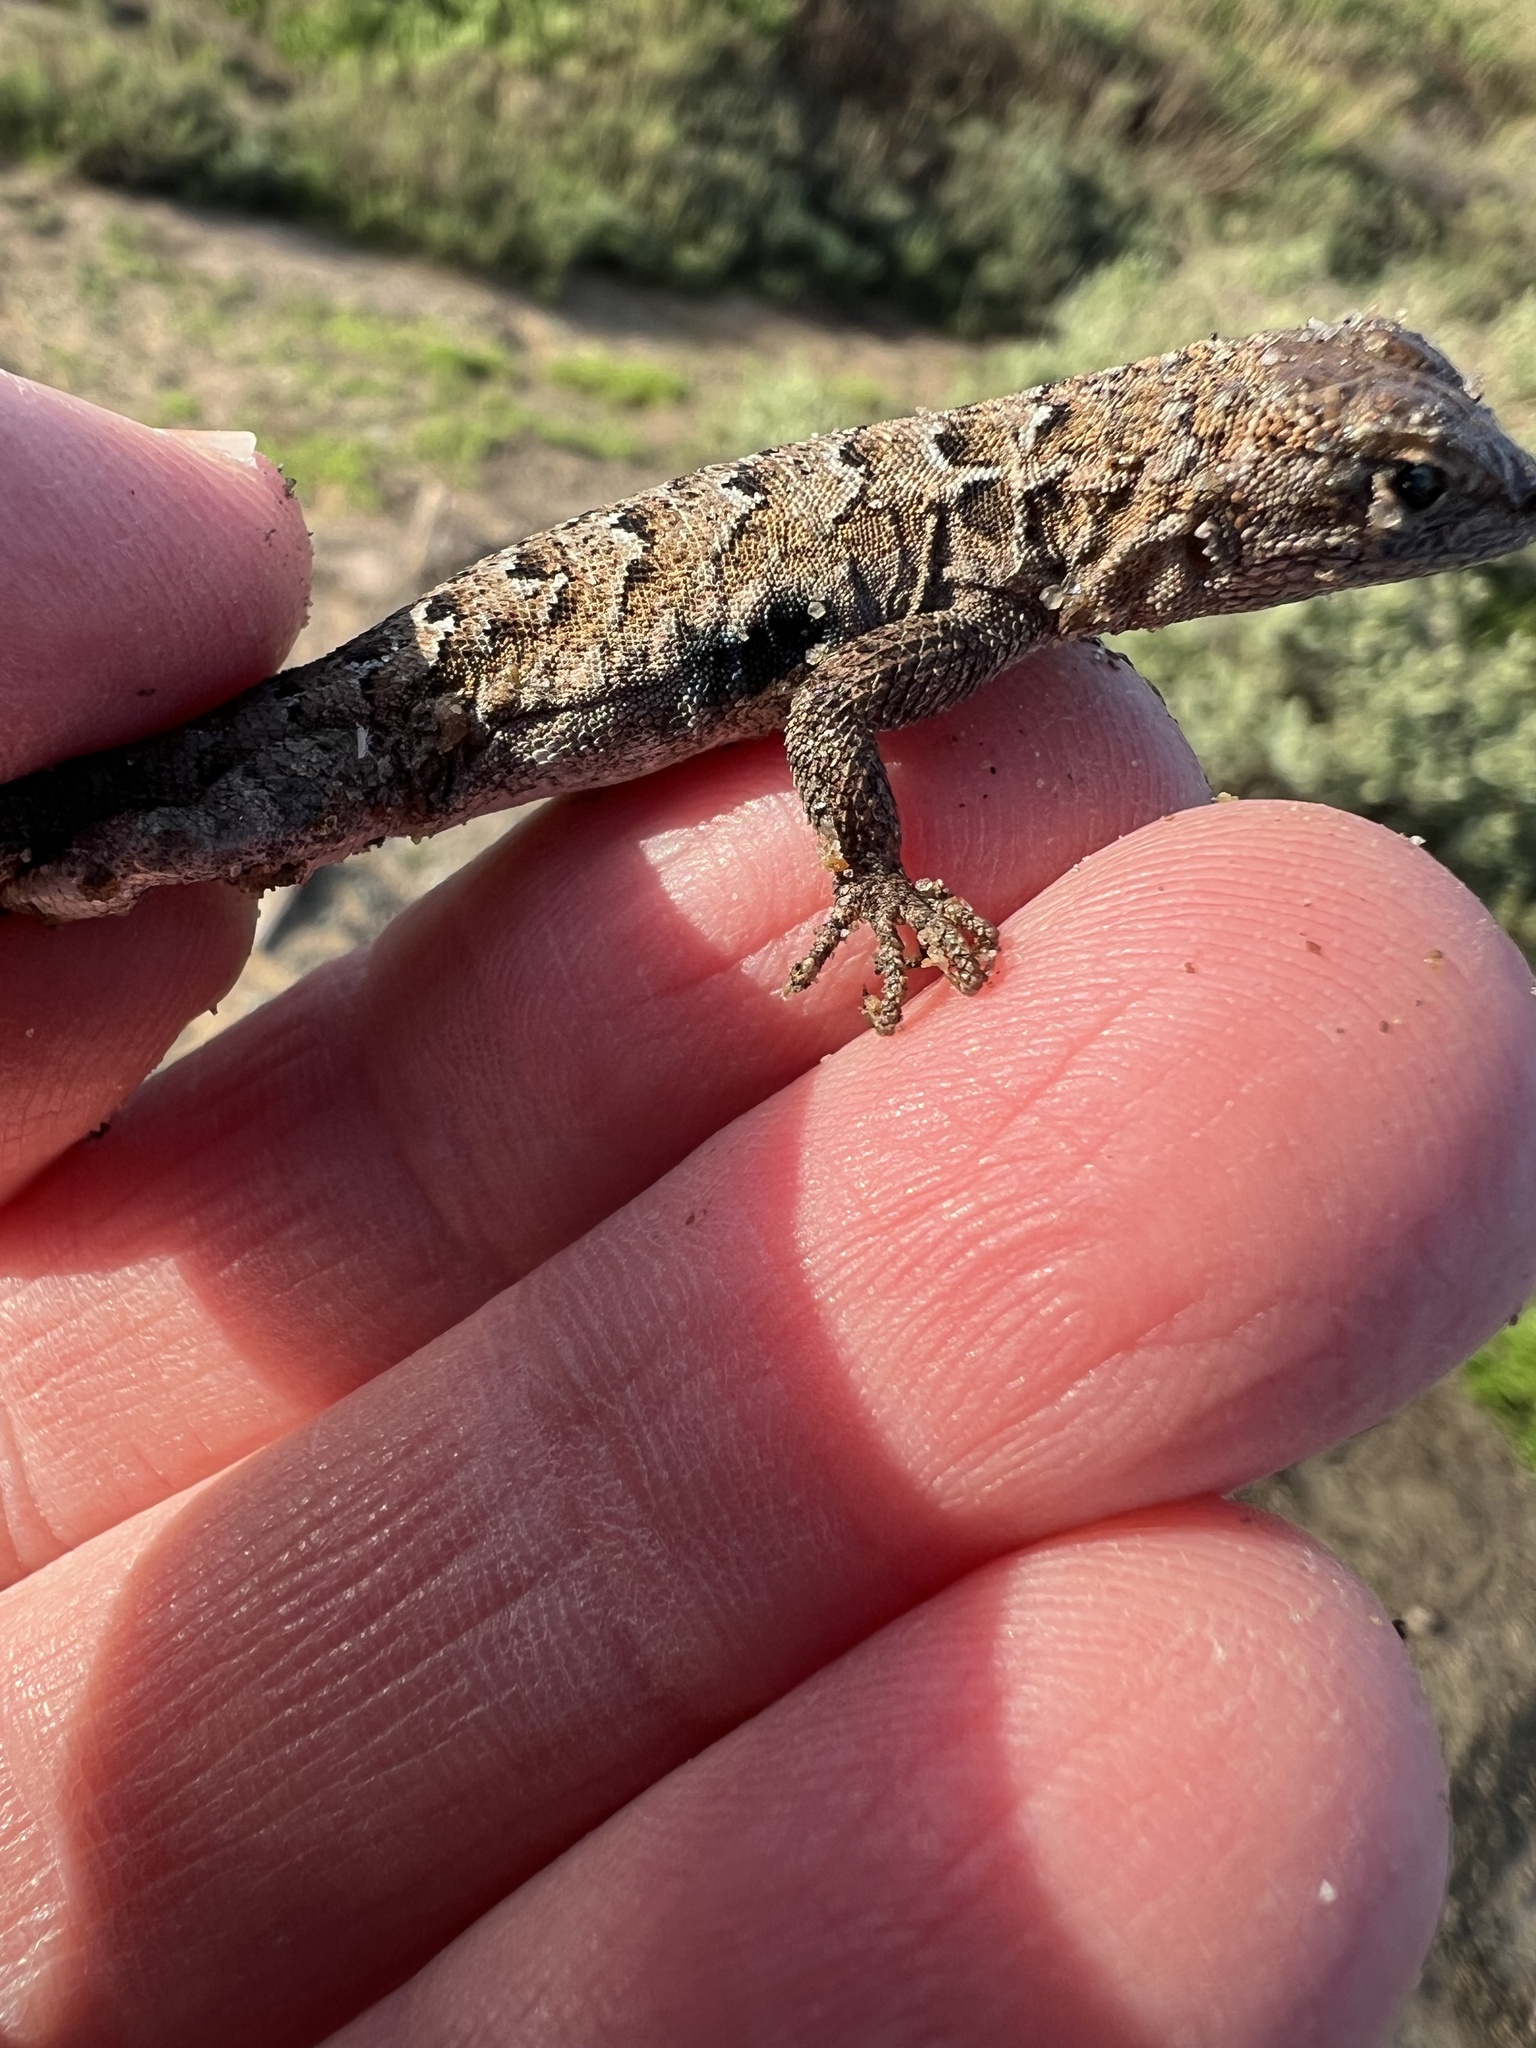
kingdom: Animalia
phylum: Chordata
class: Squamata
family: Phrynosomatidae
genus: Uta
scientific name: Uta stansburiana
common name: Side-blotched lizard
